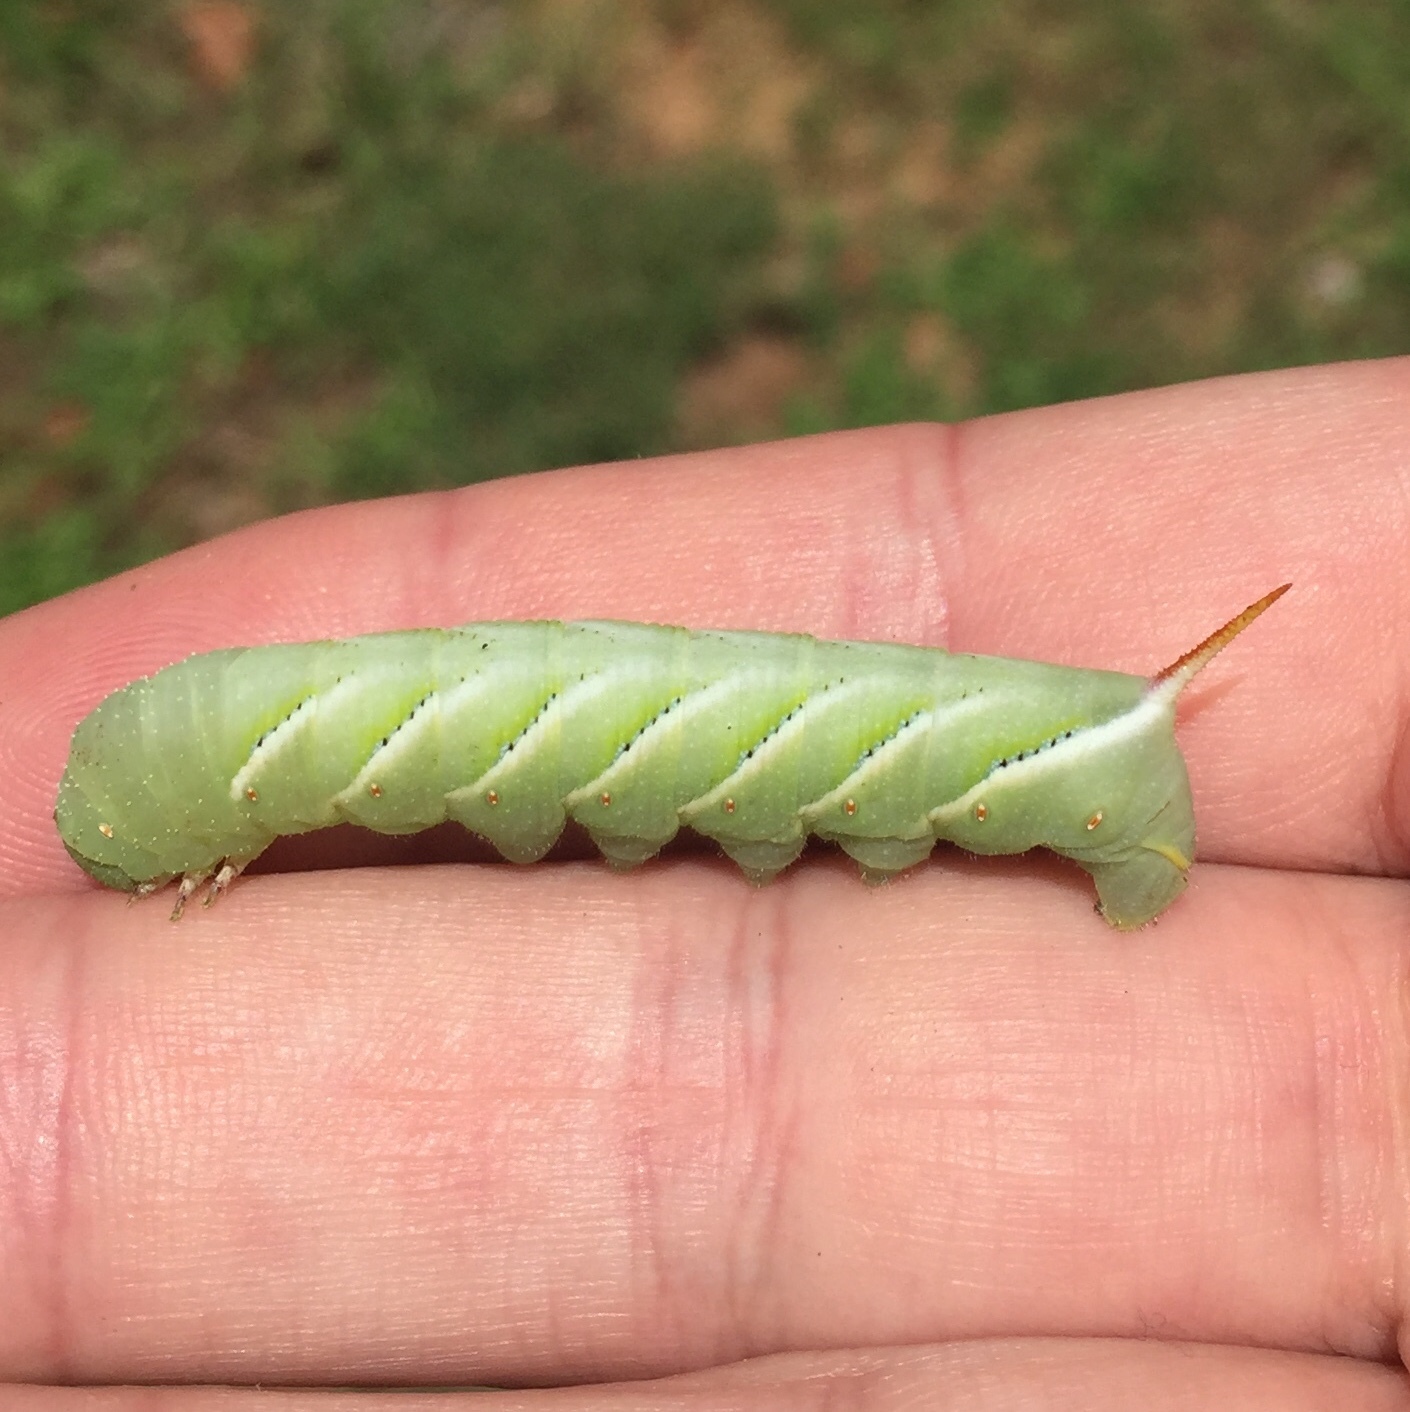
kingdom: Animalia
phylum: Arthropoda
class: Insecta
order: Lepidoptera
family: Sphingidae
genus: Manduca
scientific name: Manduca sexta
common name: Carolina sphinx
